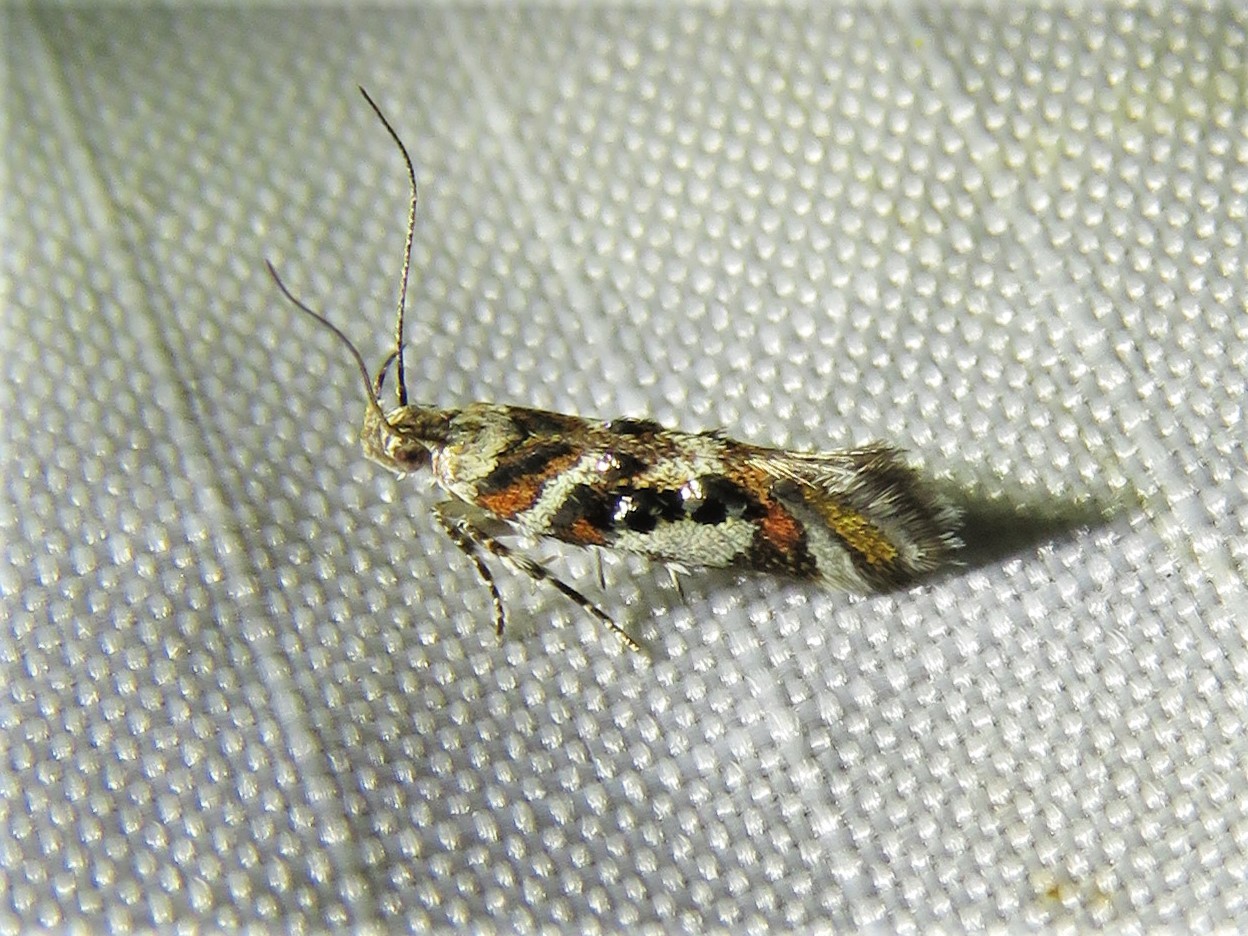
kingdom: Animalia
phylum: Arthropoda
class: Insecta
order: Lepidoptera
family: Gelechiidae
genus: Aristotelia
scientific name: Aristotelia elegantella
